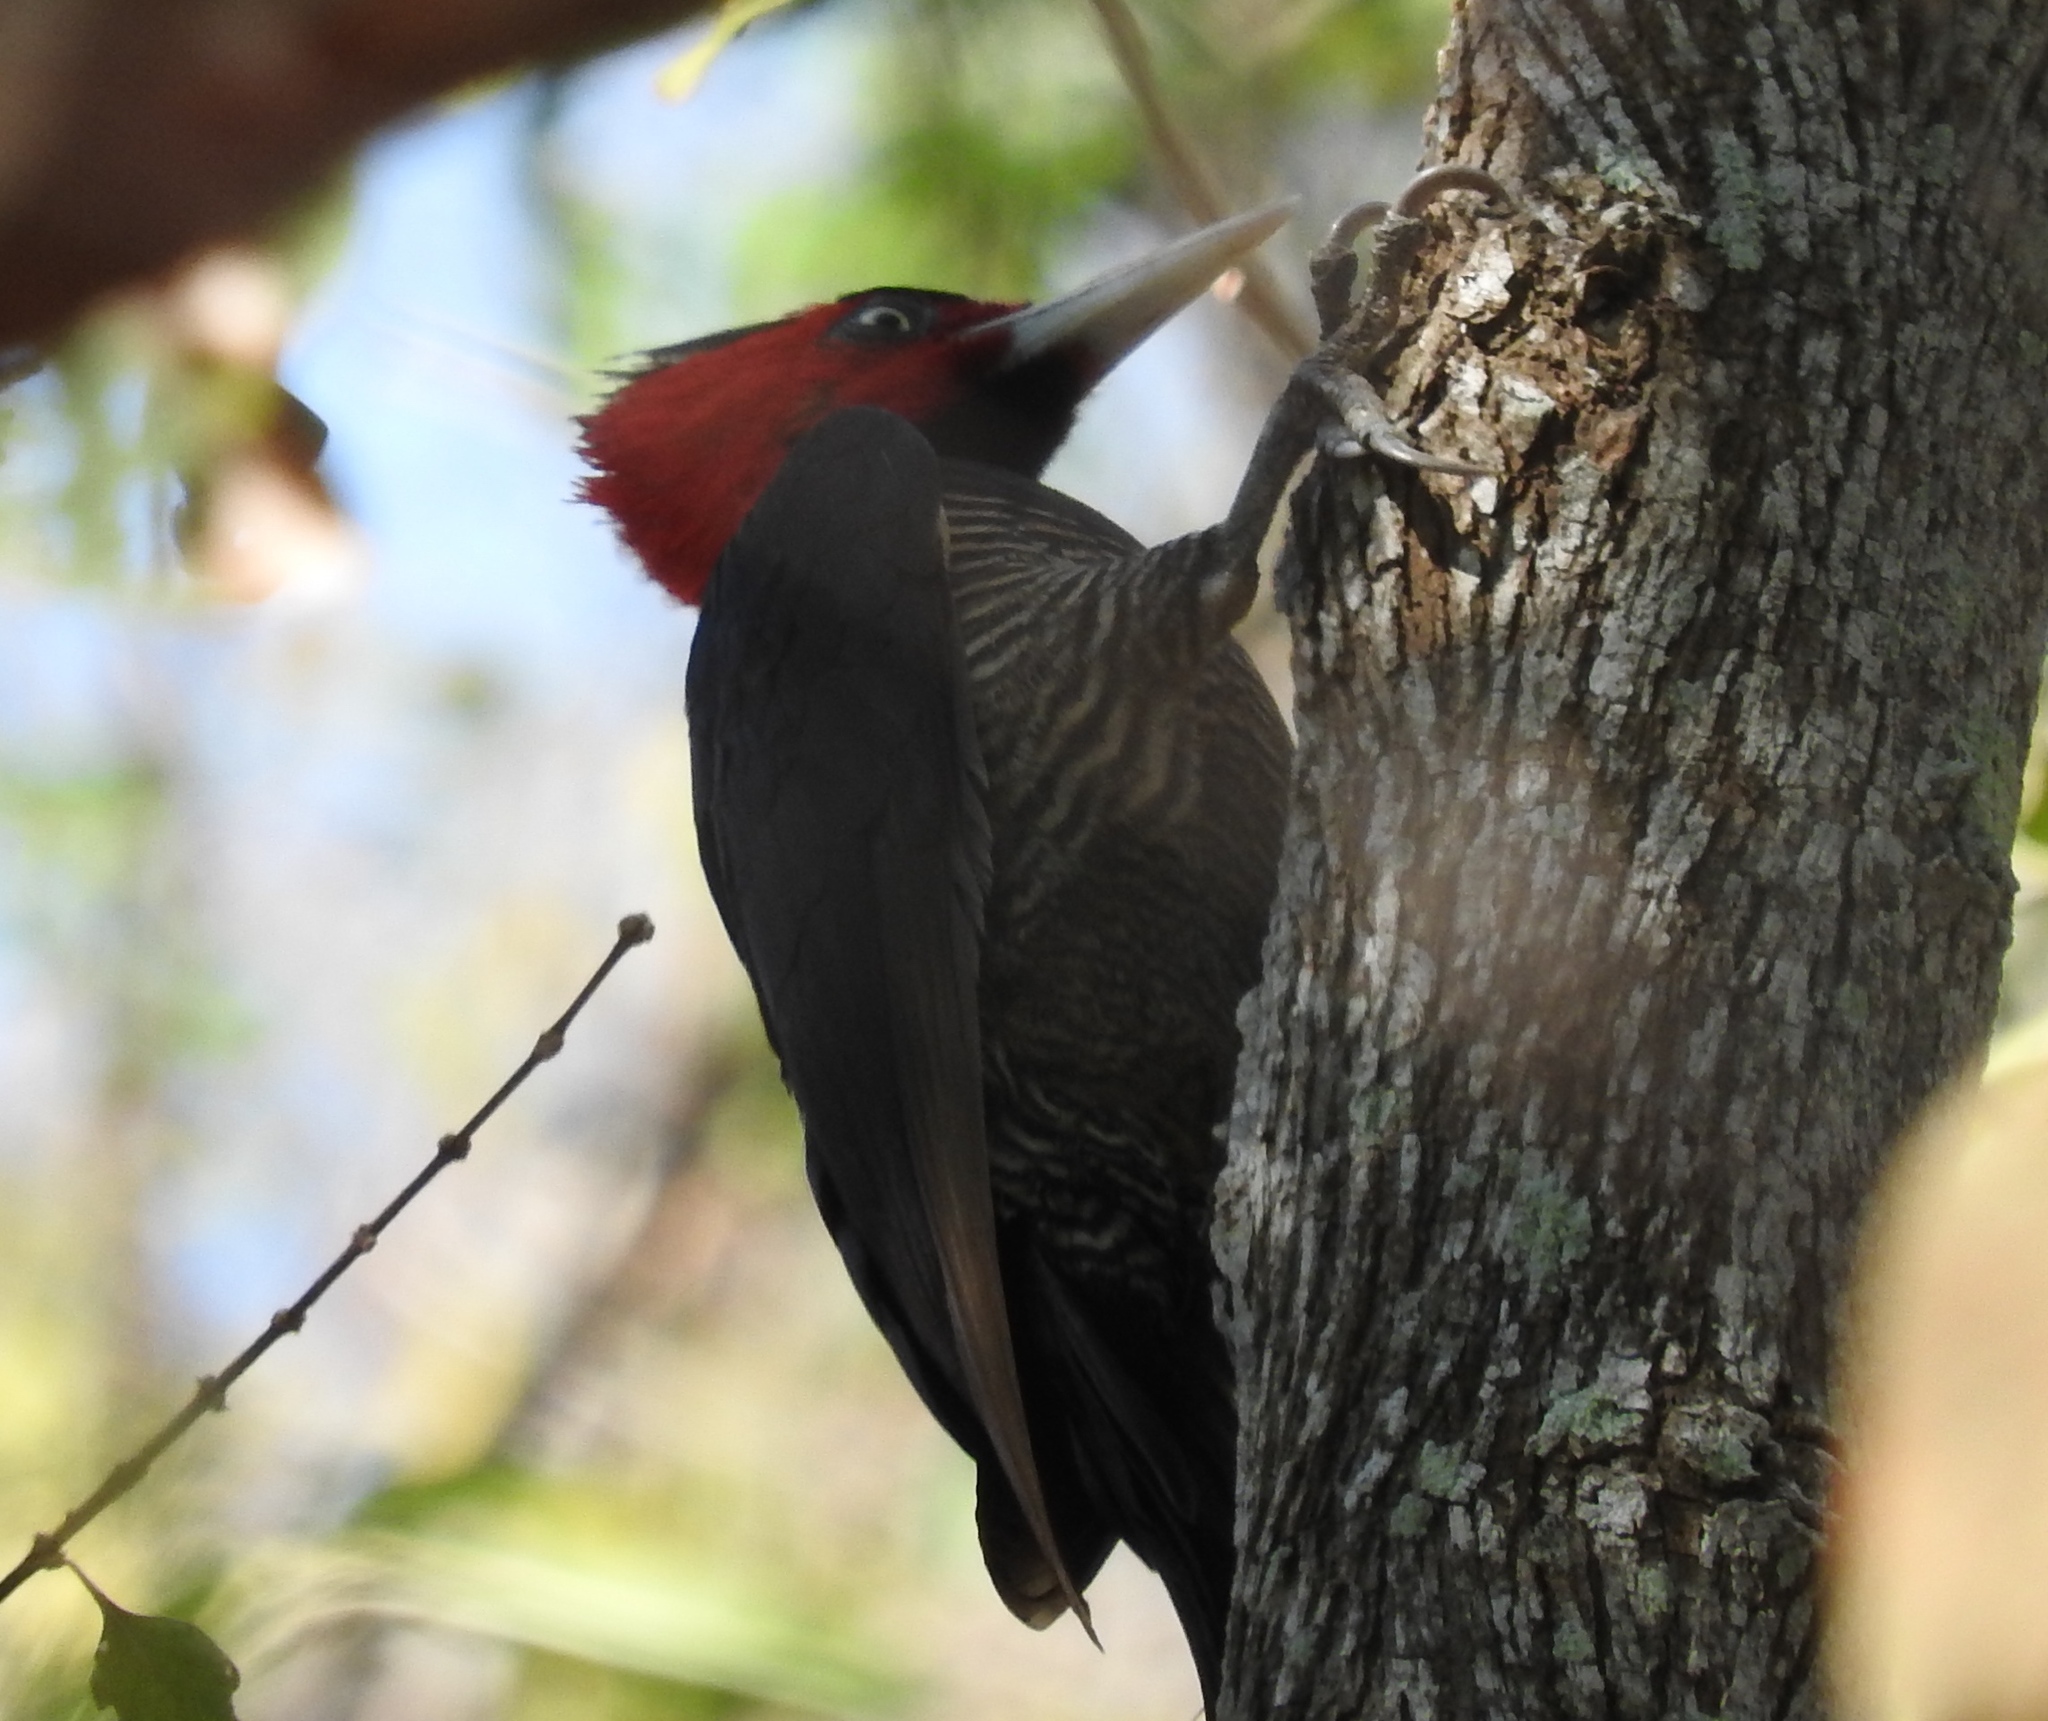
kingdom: Animalia
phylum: Chordata
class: Aves
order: Piciformes
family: Picidae
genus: Campephilus
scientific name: Campephilus guatemalensis
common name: Pale-billed woodpecker
